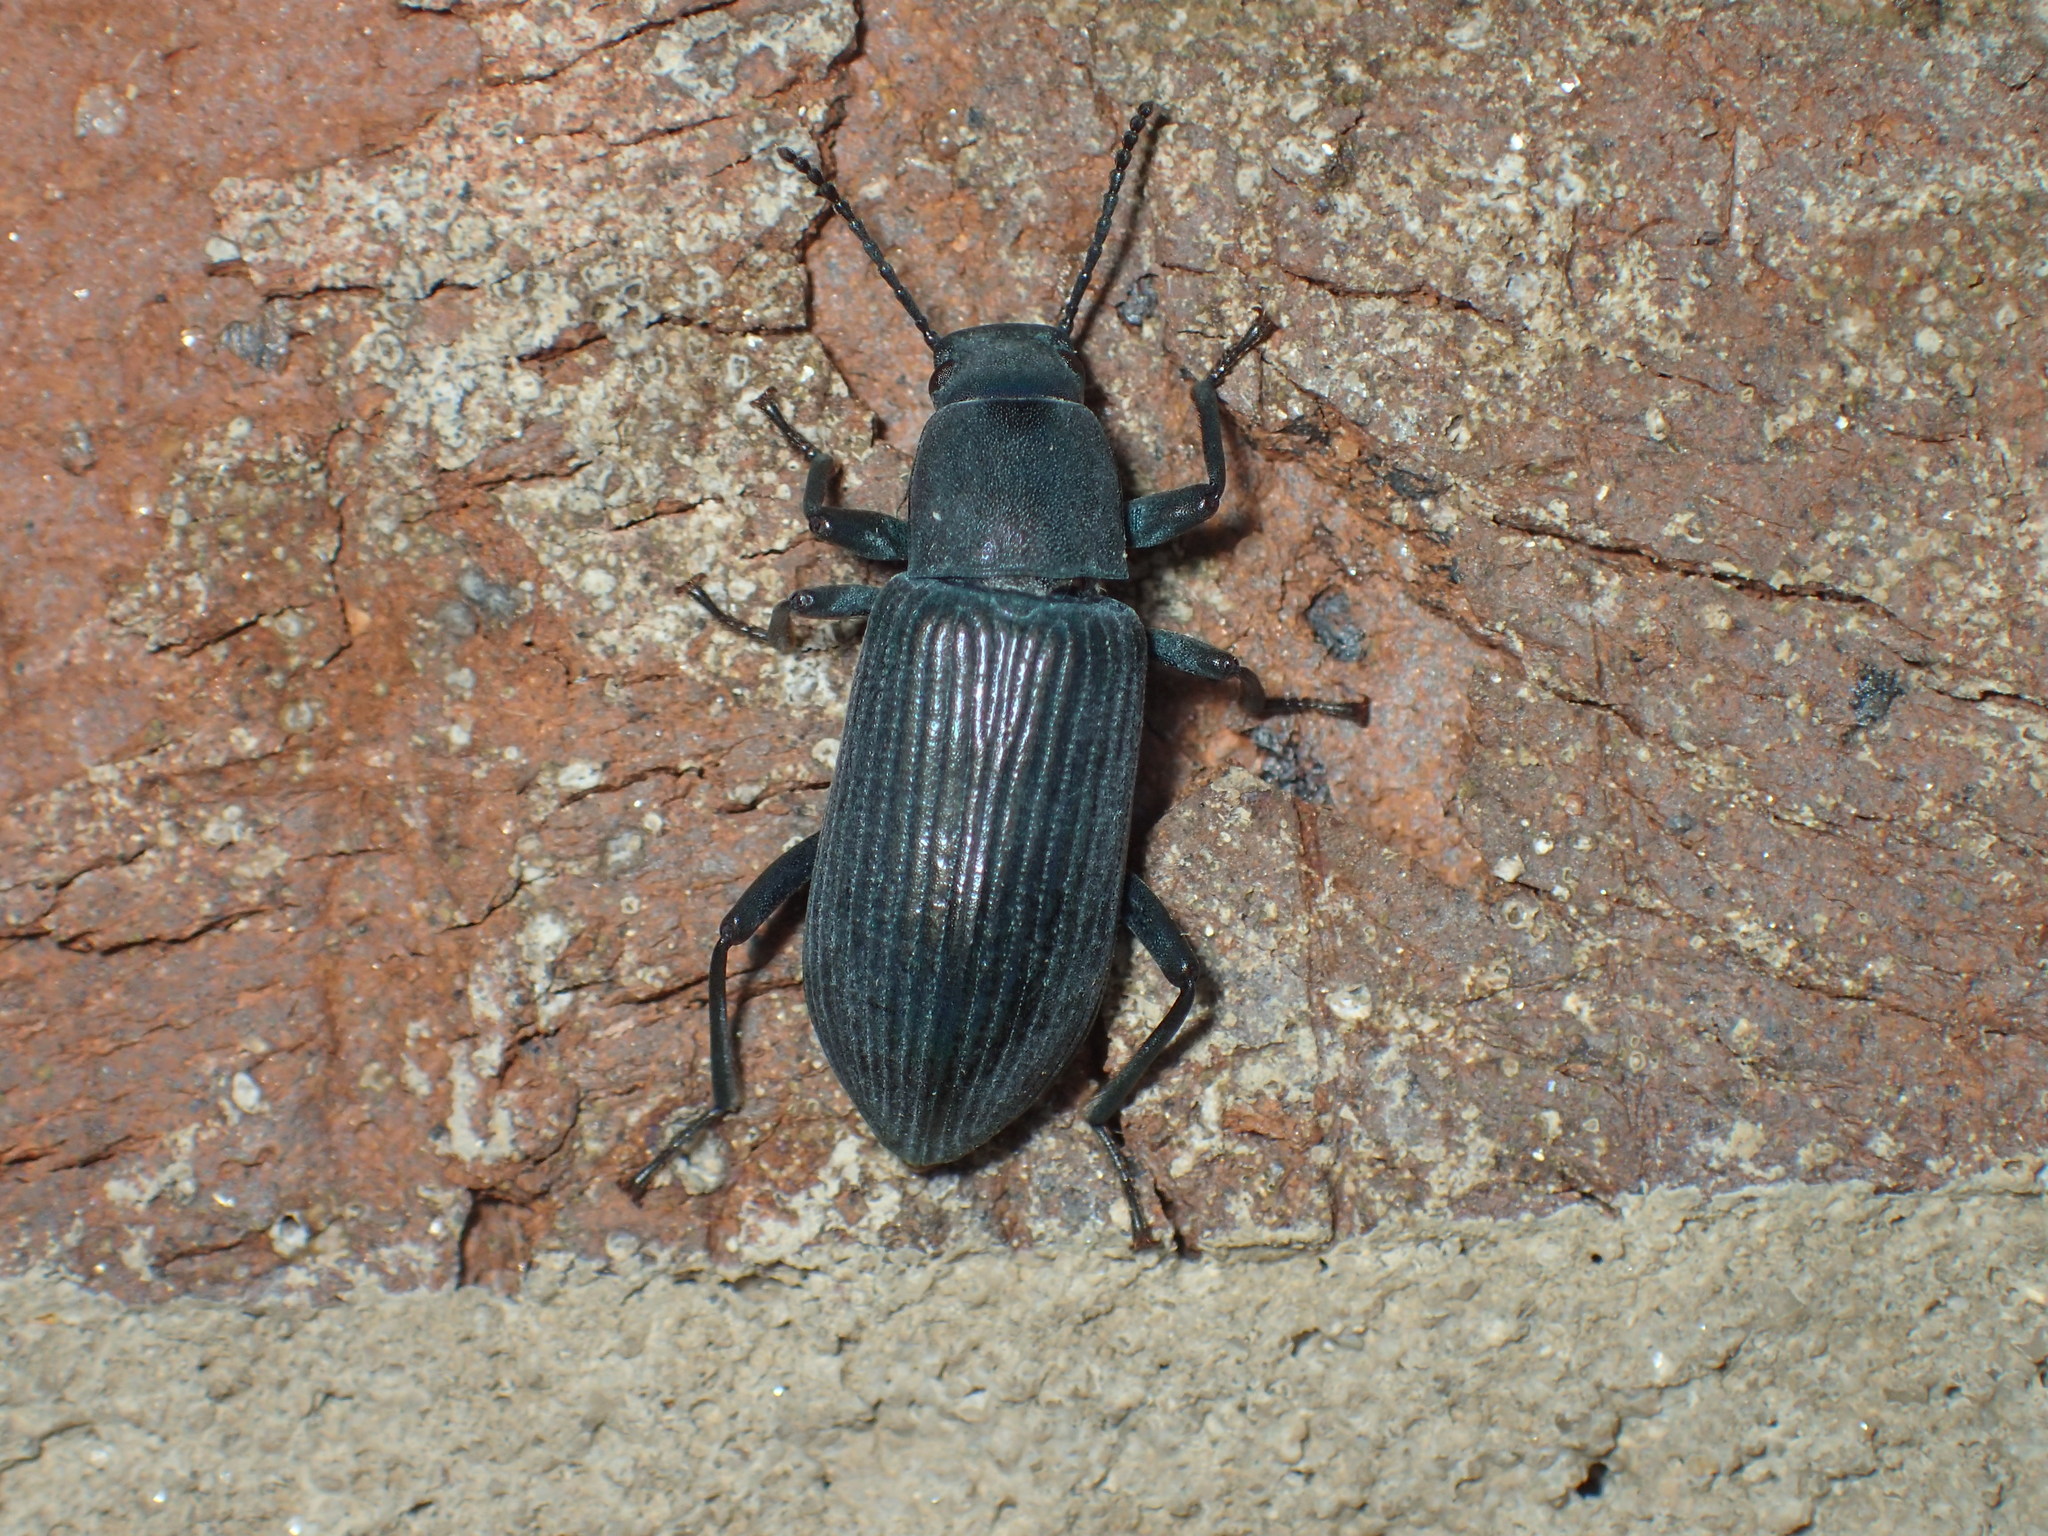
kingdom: Animalia
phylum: Arthropoda
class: Insecta
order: Coleoptera
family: Tenebrionidae
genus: Xylopinus
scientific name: Xylopinus saperdoides
